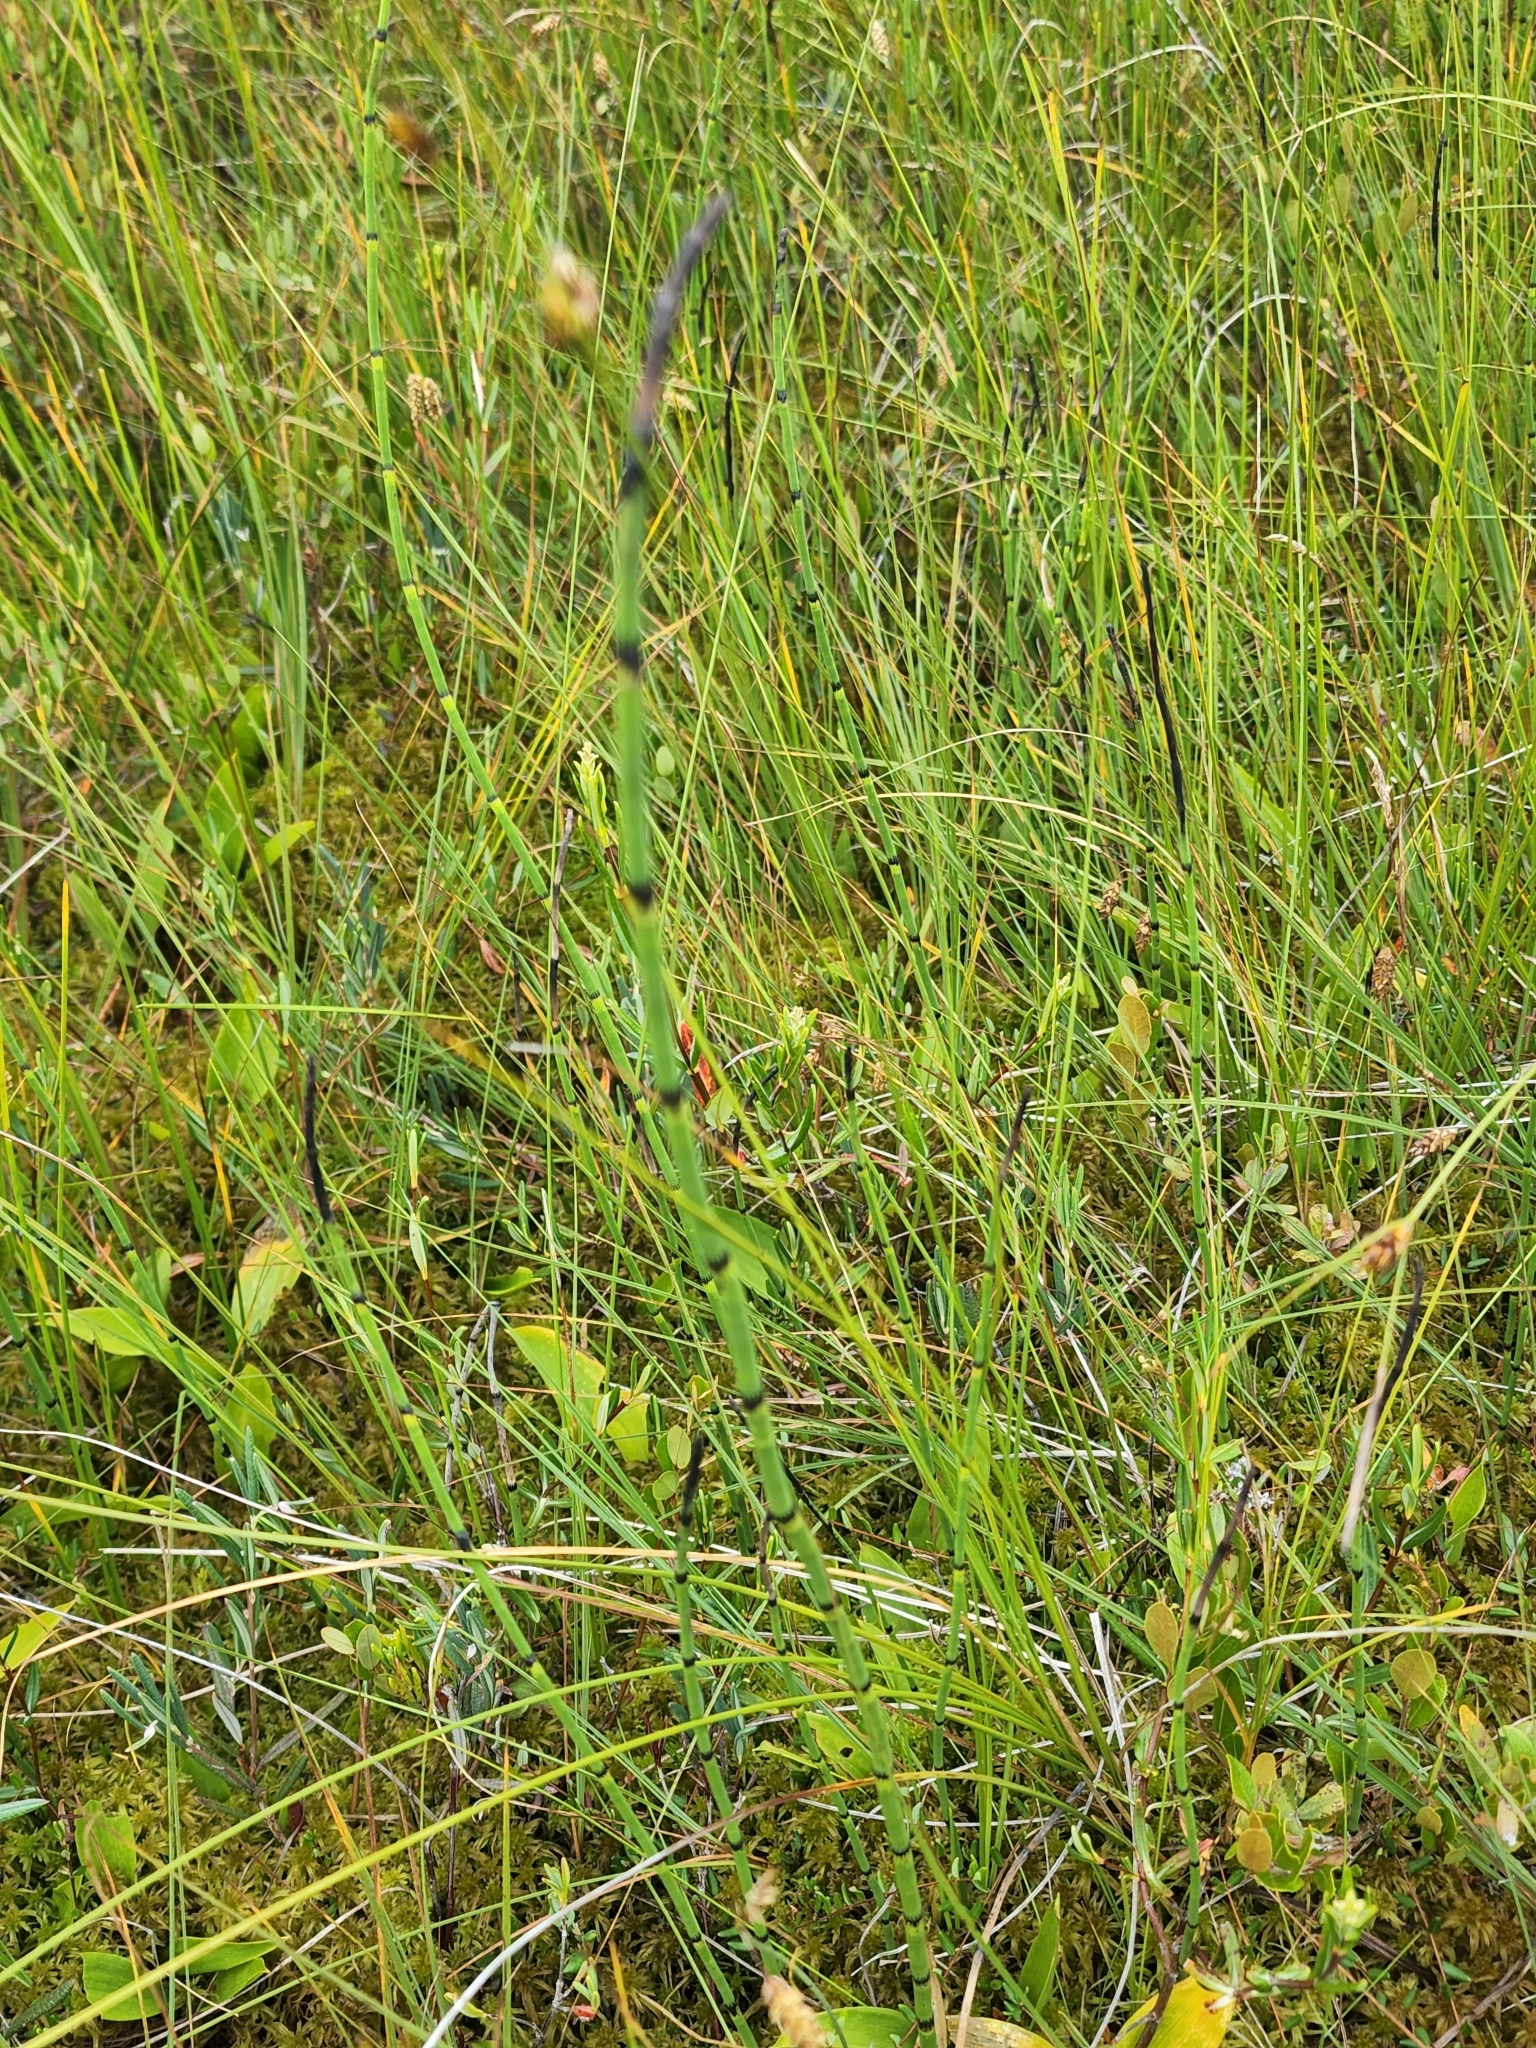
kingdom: Plantae
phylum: Tracheophyta
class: Polypodiopsida
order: Equisetales
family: Equisetaceae
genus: Equisetum
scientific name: Equisetum fluviatile
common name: Water horsetail
